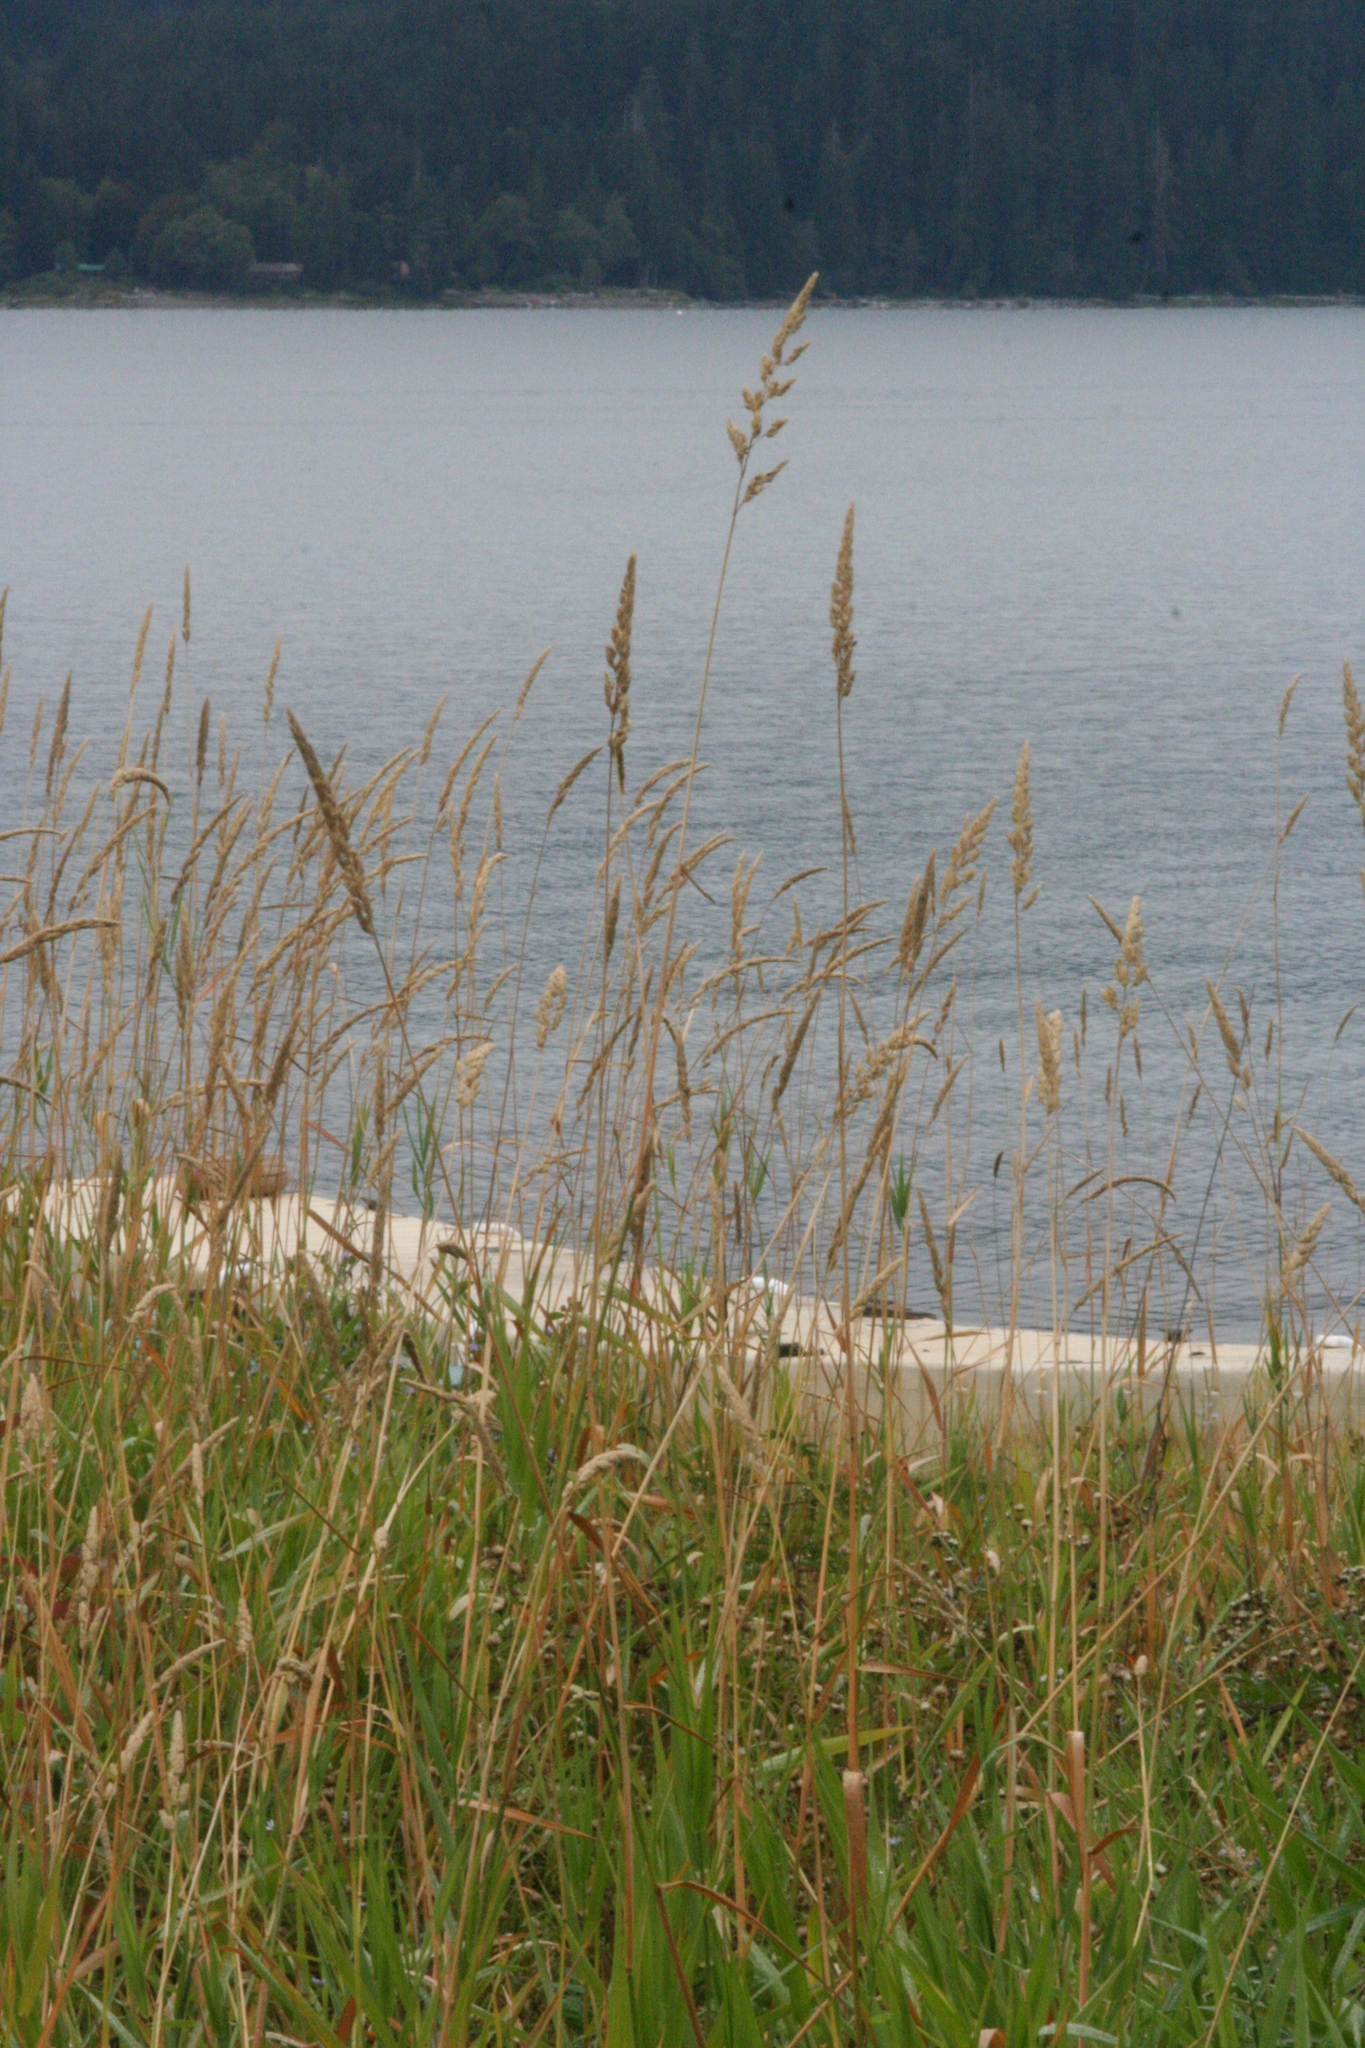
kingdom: Plantae
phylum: Tracheophyta
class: Liliopsida
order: Poales
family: Poaceae
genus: Phalaris
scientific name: Phalaris arundinacea
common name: Reed canary-grass
